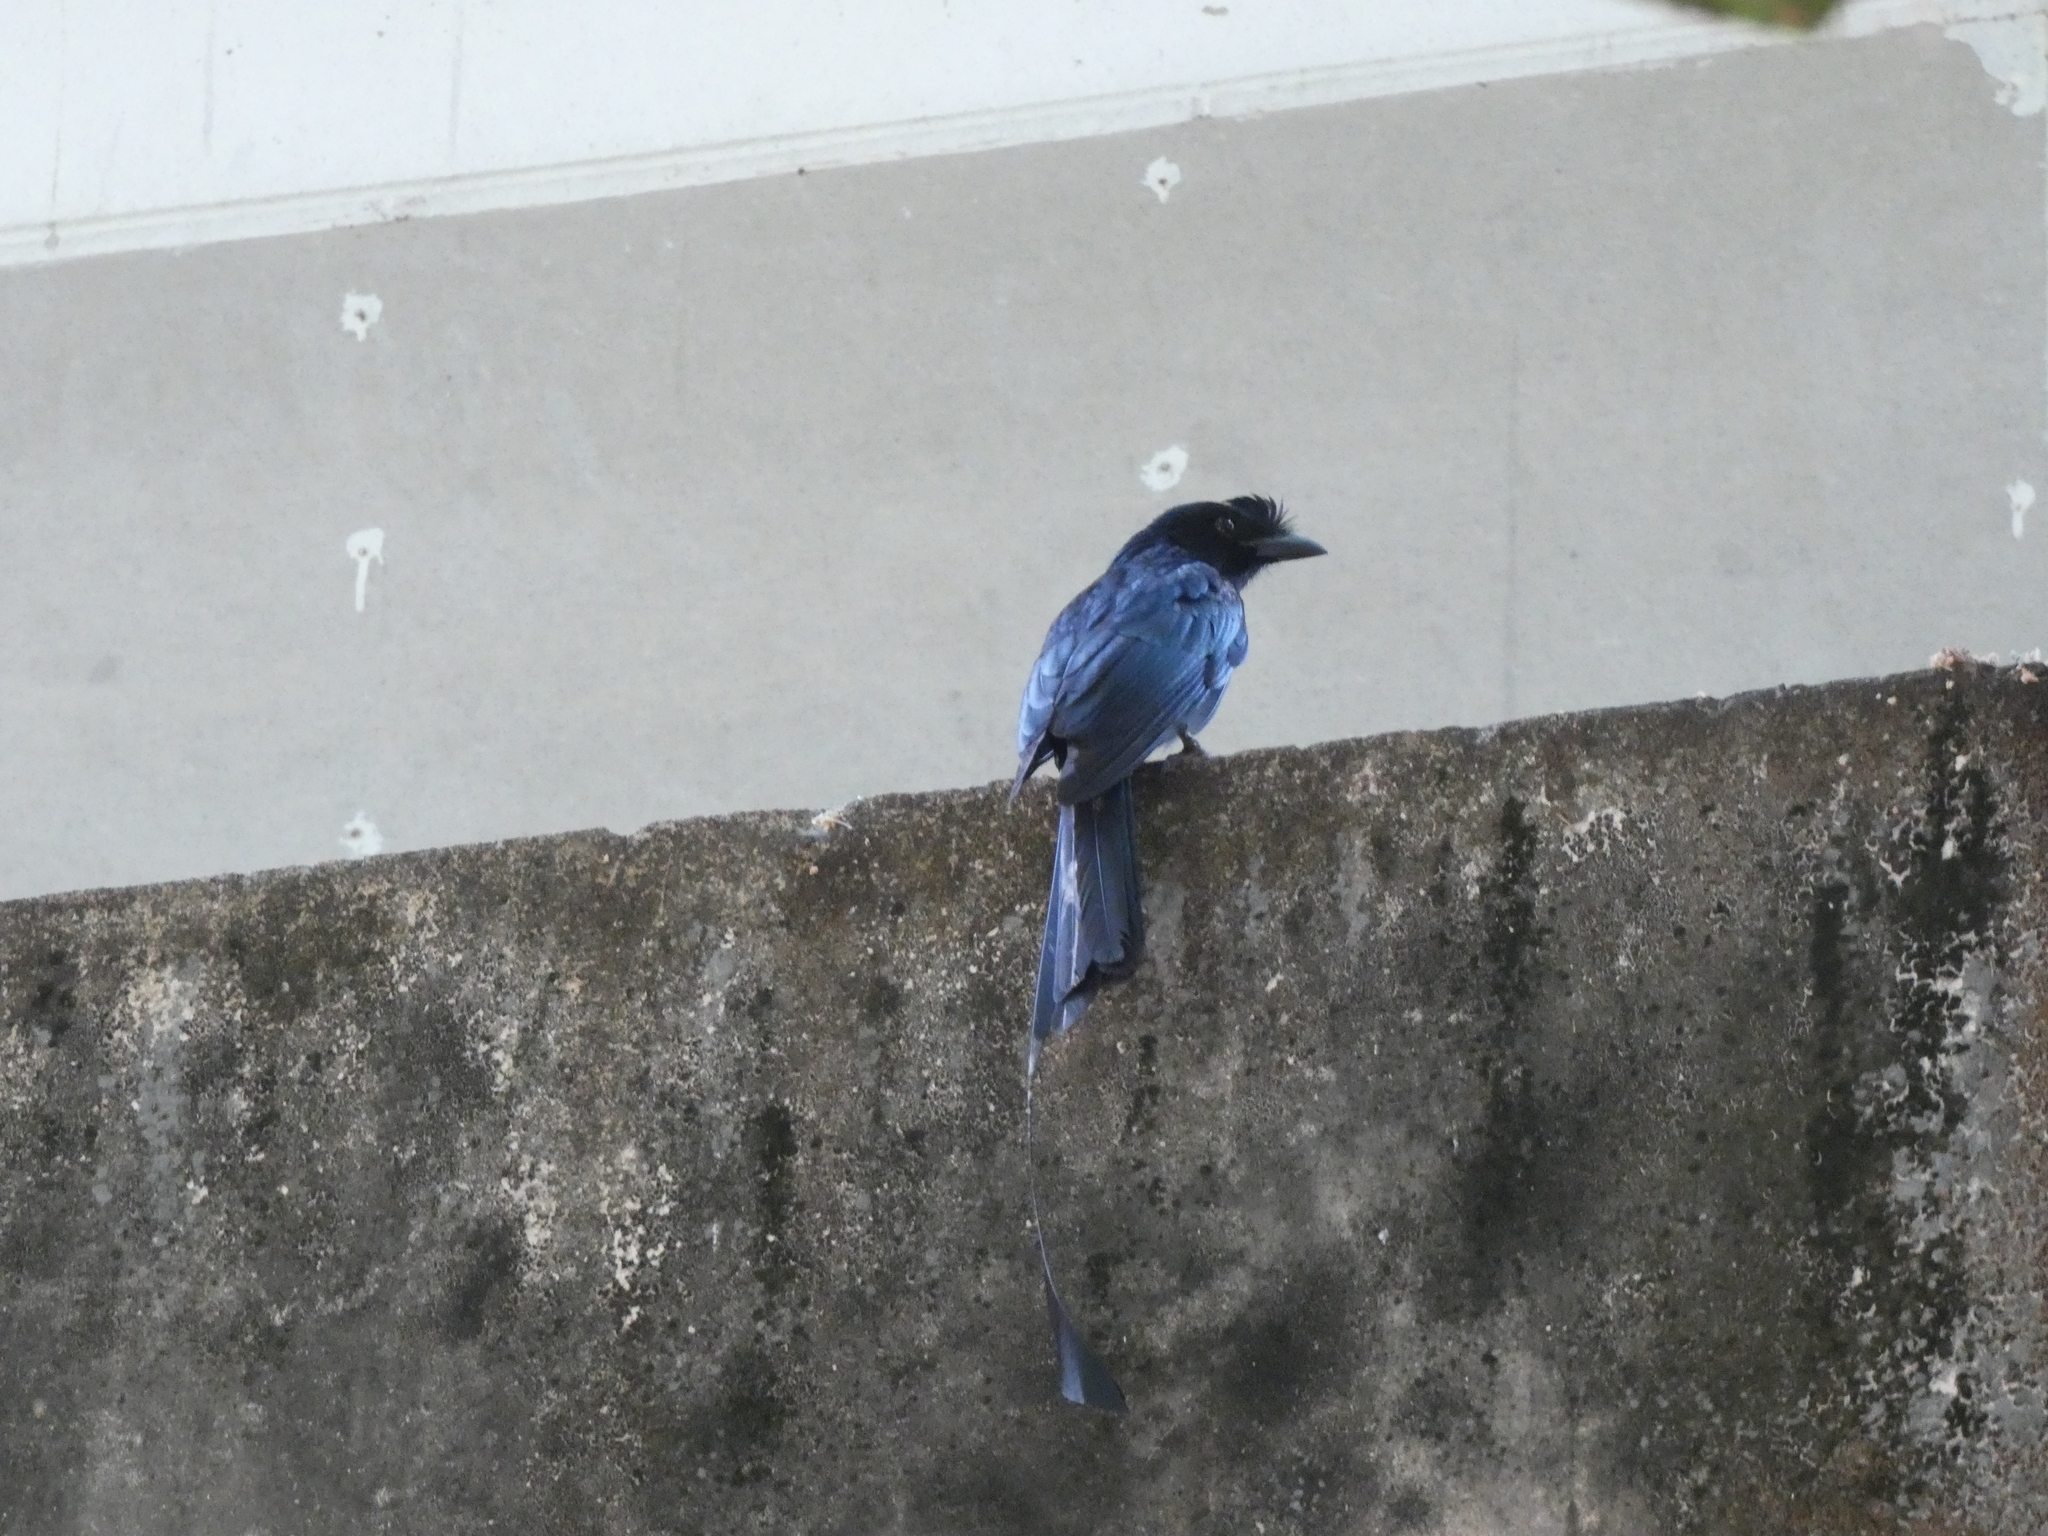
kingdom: Animalia
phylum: Chordata
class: Aves
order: Passeriformes
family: Dicruridae
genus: Dicrurus
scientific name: Dicrurus paradiseus
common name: Greater racket-tailed drongo
